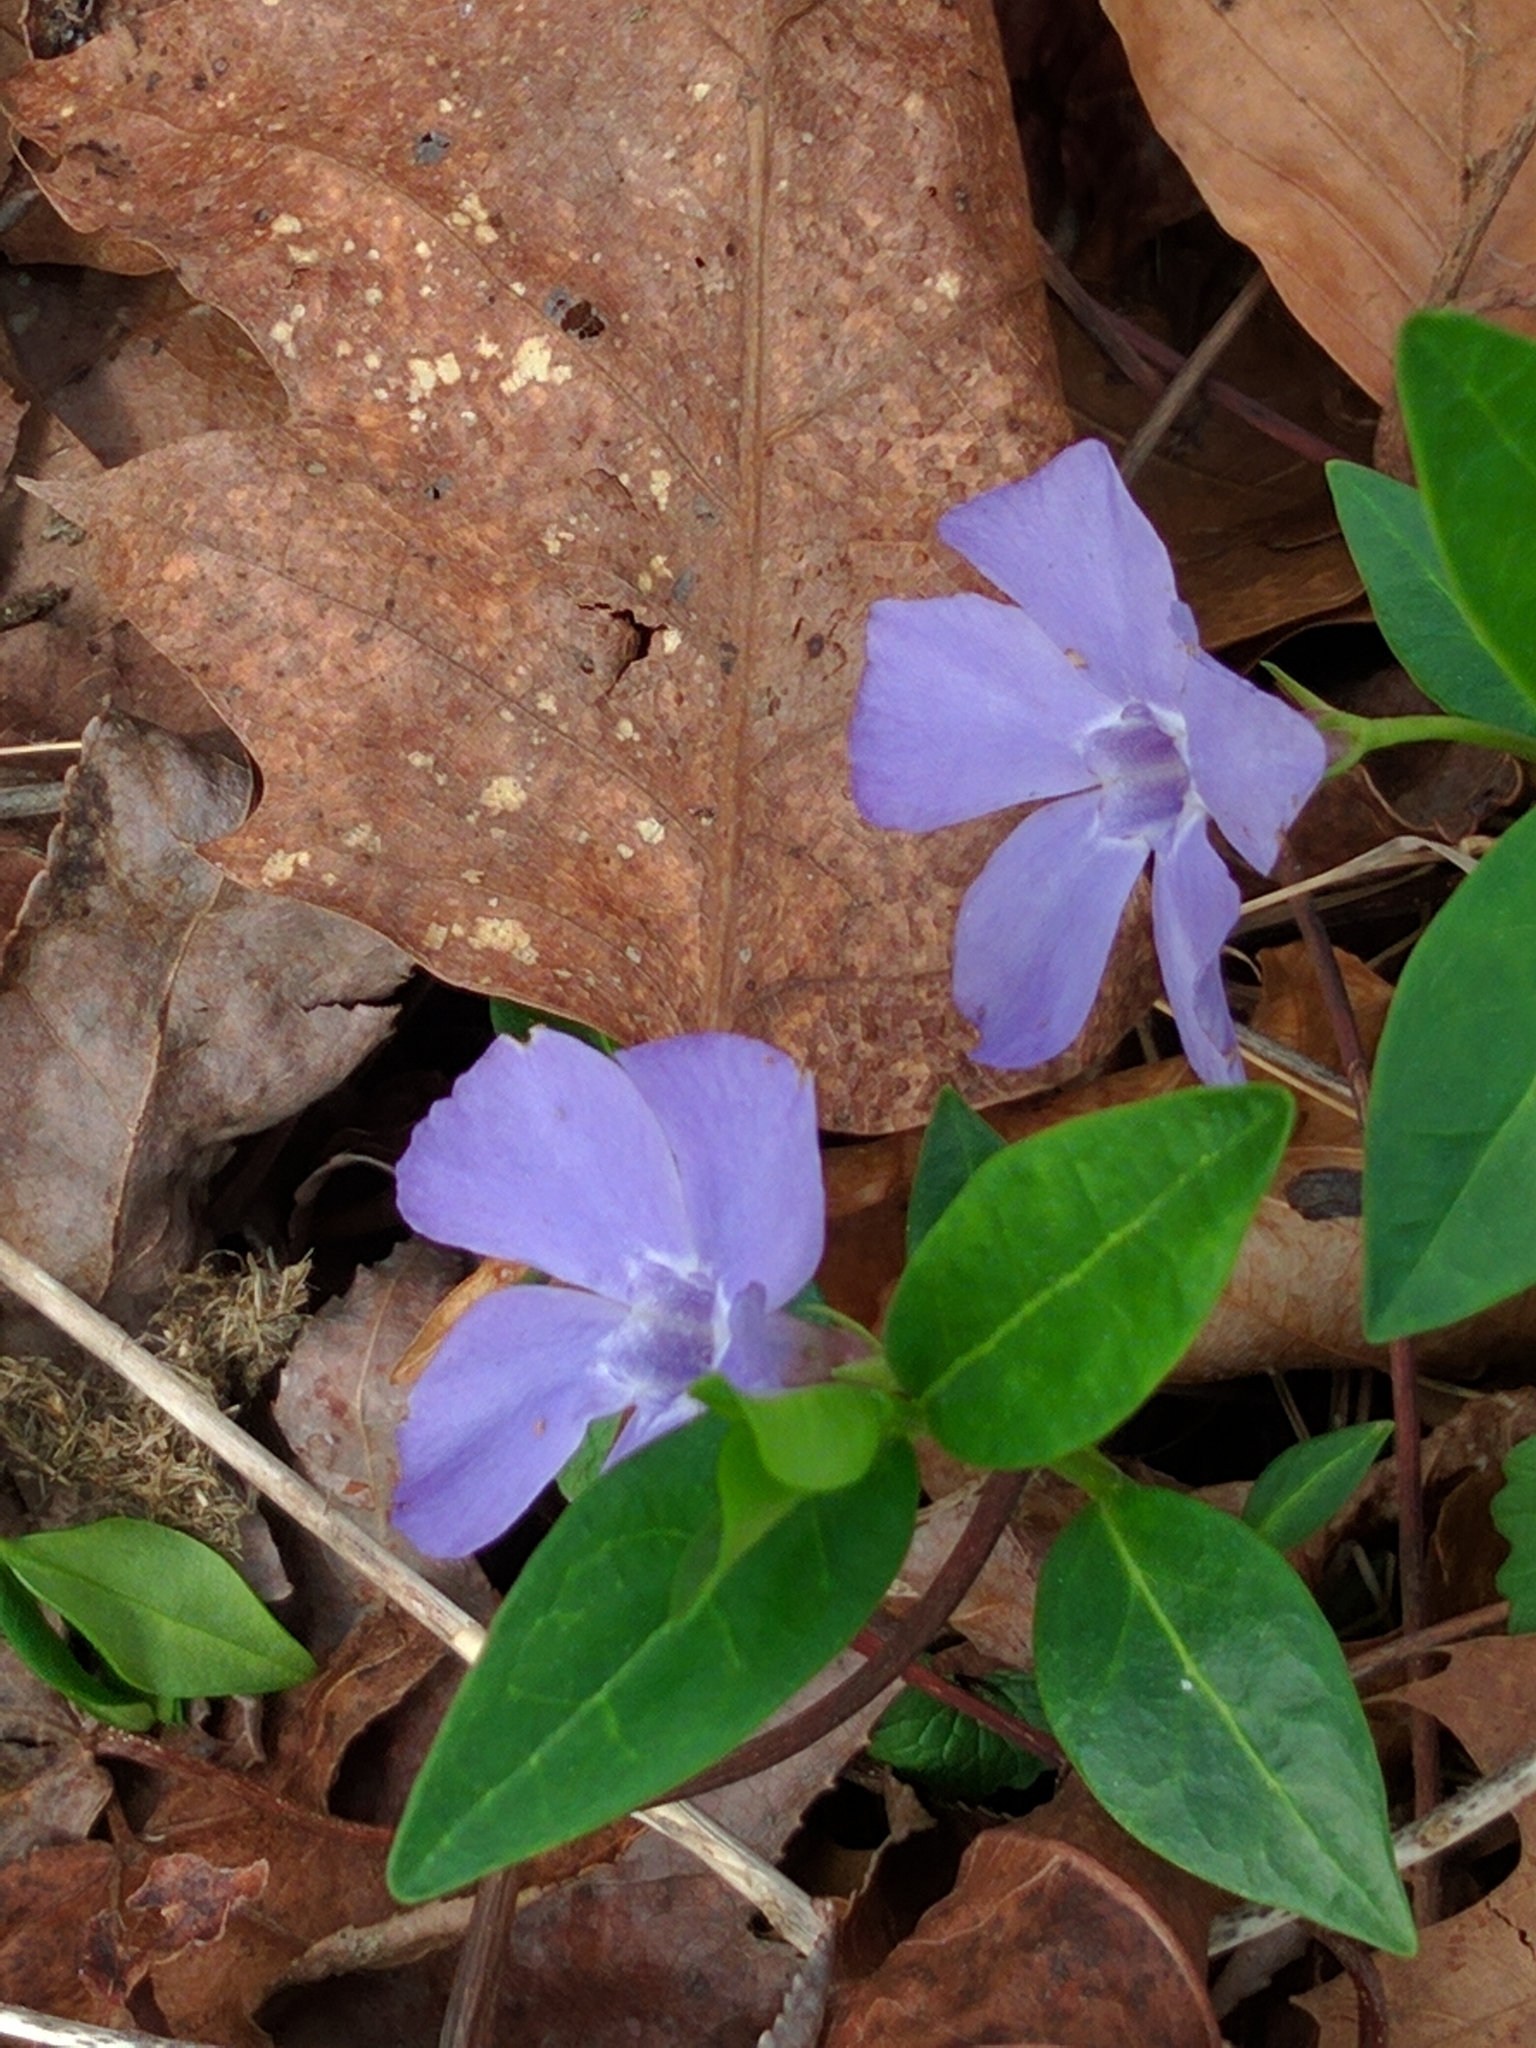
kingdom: Plantae
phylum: Tracheophyta
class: Magnoliopsida
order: Gentianales
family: Apocynaceae
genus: Vinca
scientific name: Vinca minor
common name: Lesser periwinkle
